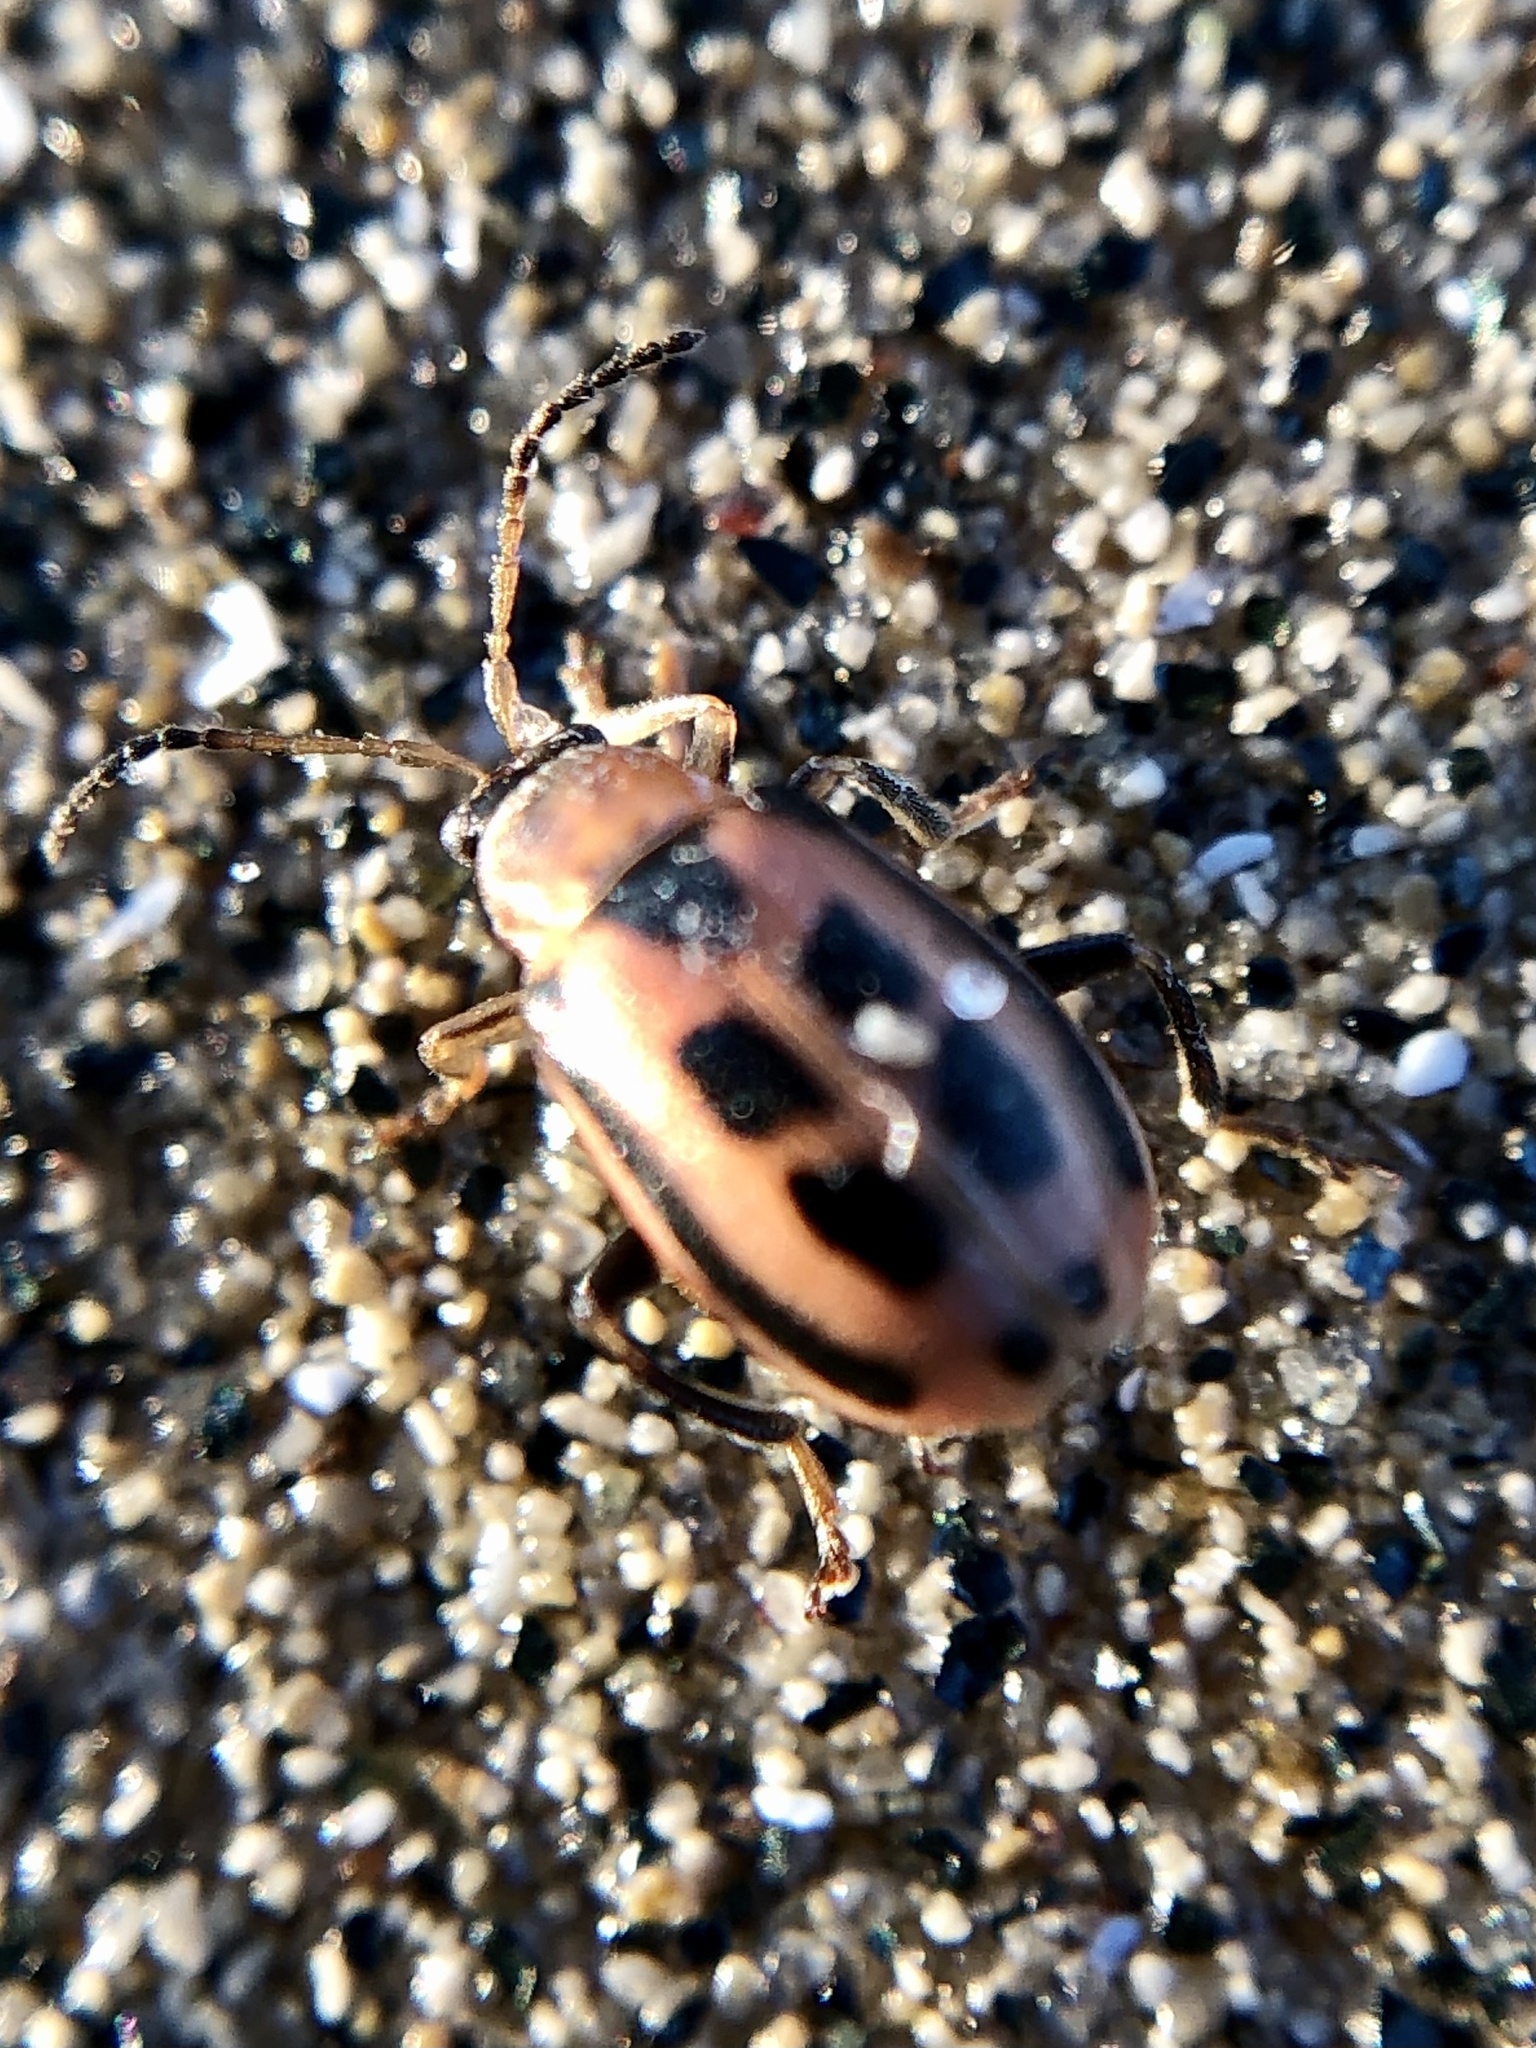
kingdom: Animalia
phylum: Arthropoda
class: Insecta
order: Coleoptera
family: Chrysomelidae
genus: Cerotoma
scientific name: Cerotoma trifurcata
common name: Bean leaf beetle
